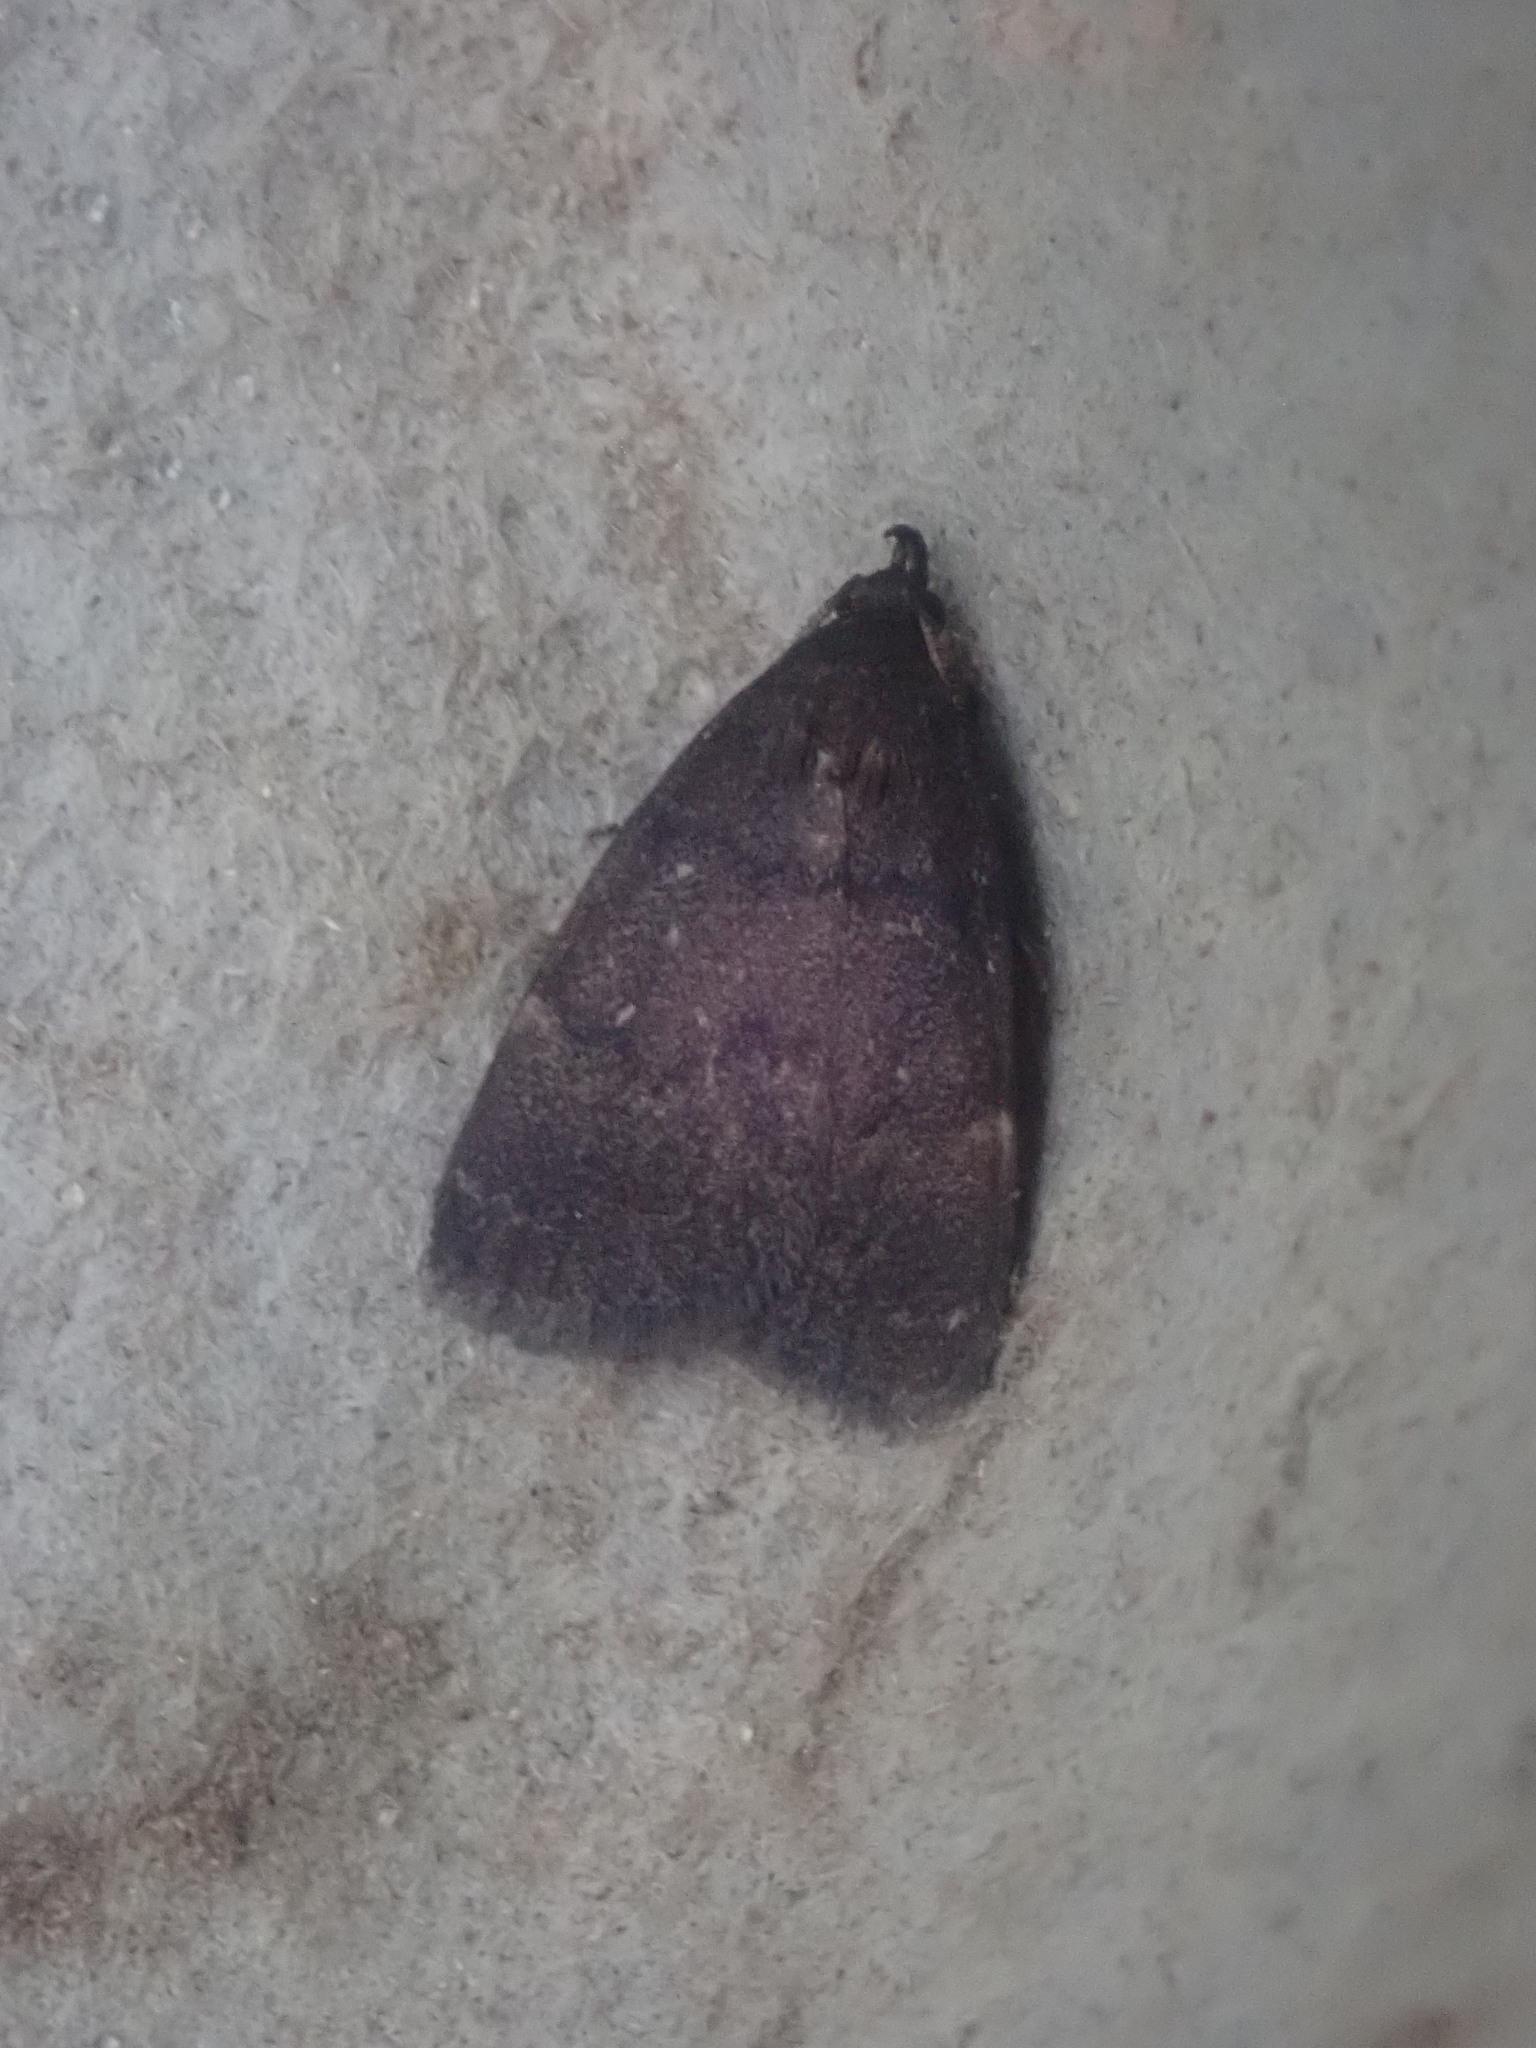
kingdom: Animalia
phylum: Arthropoda
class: Insecta
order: Lepidoptera
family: Erebidae
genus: Idia
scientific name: Idia rotundalis
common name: Rotund idia moth
